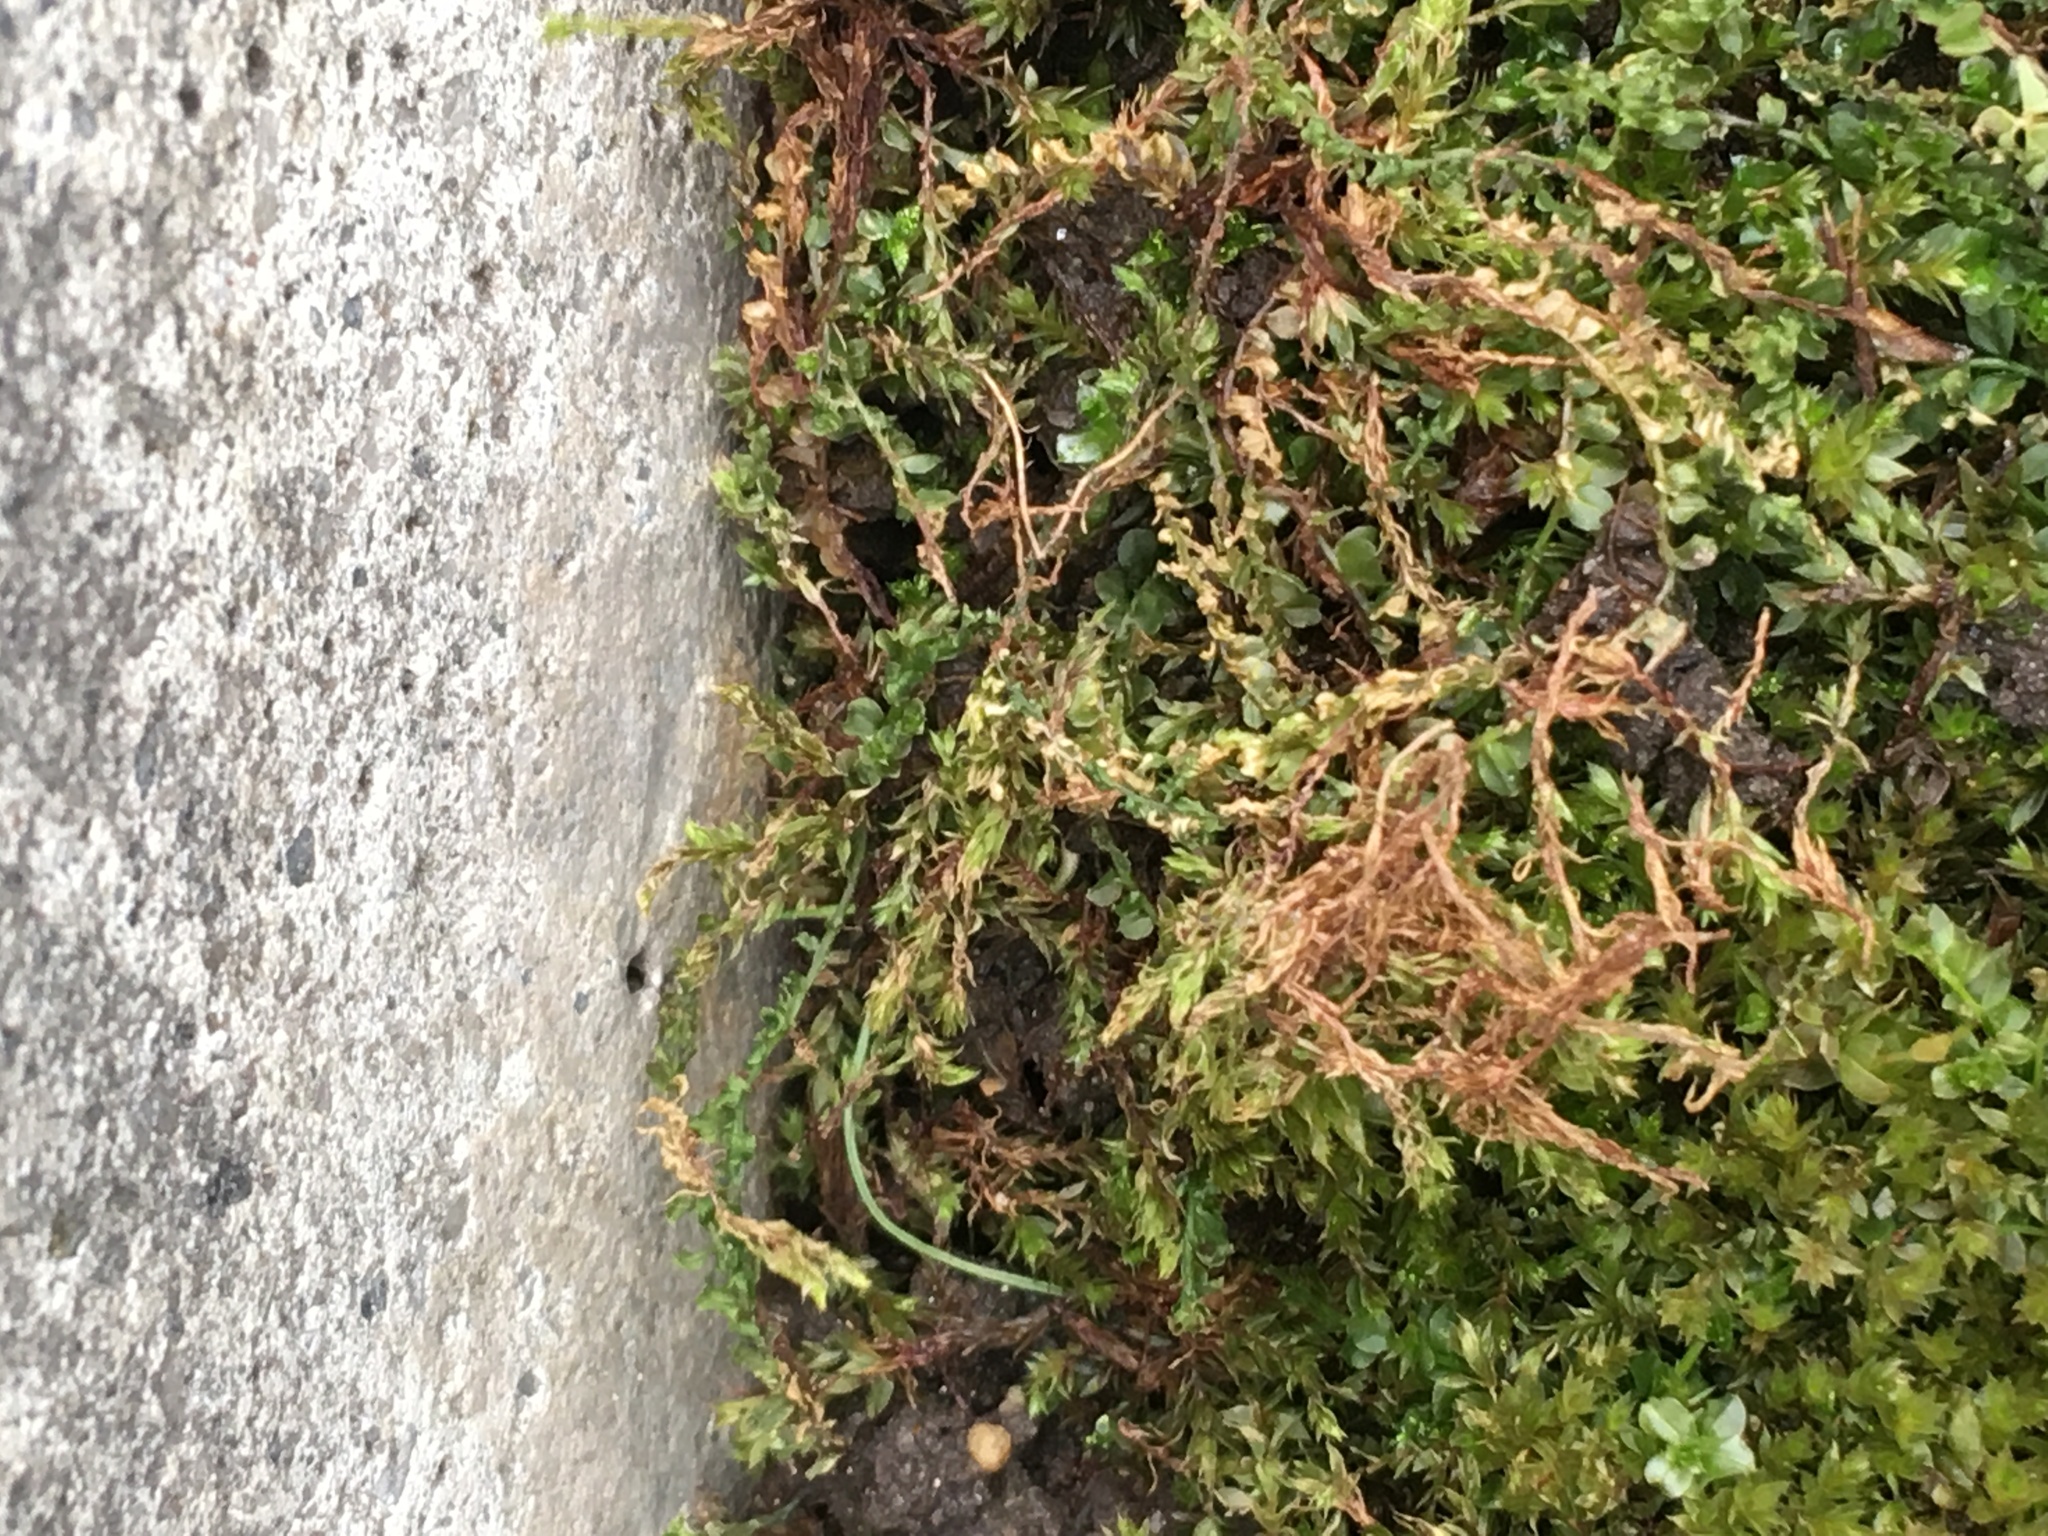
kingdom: Plantae
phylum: Bryophyta
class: Bryopsida
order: Bryales
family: Mniaceae
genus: Plagiomnium
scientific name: Plagiomnium cuspidatum
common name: Woodsy leafy moss
